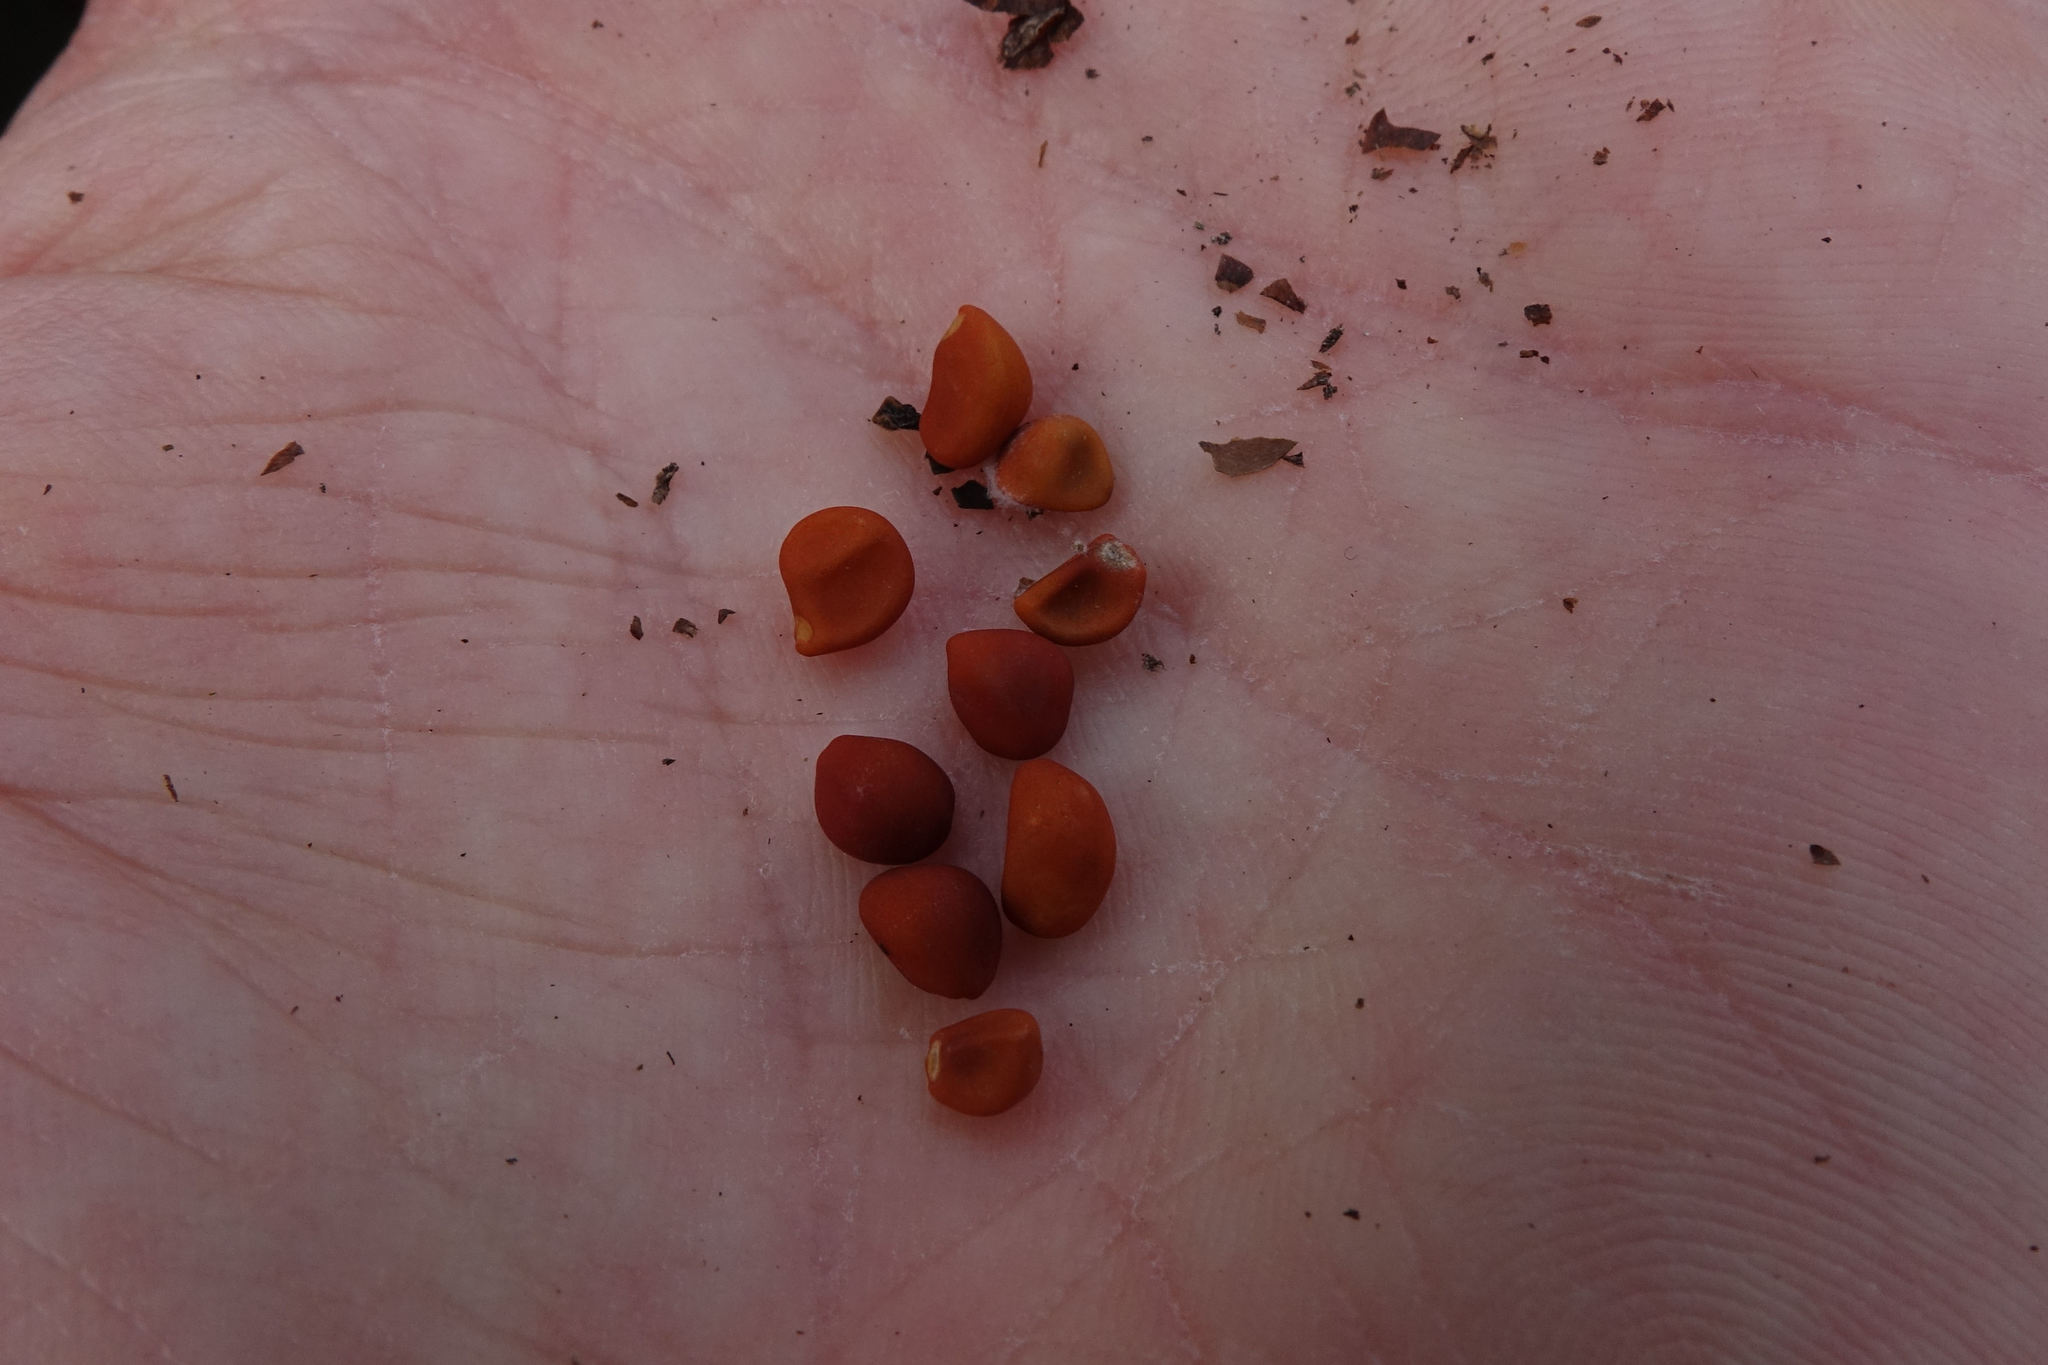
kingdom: Plantae
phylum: Tracheophyta
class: Magnoliopsida
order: Solanales
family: Convolvulaceae
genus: Calystegia
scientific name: Calystegia tuguriorum
